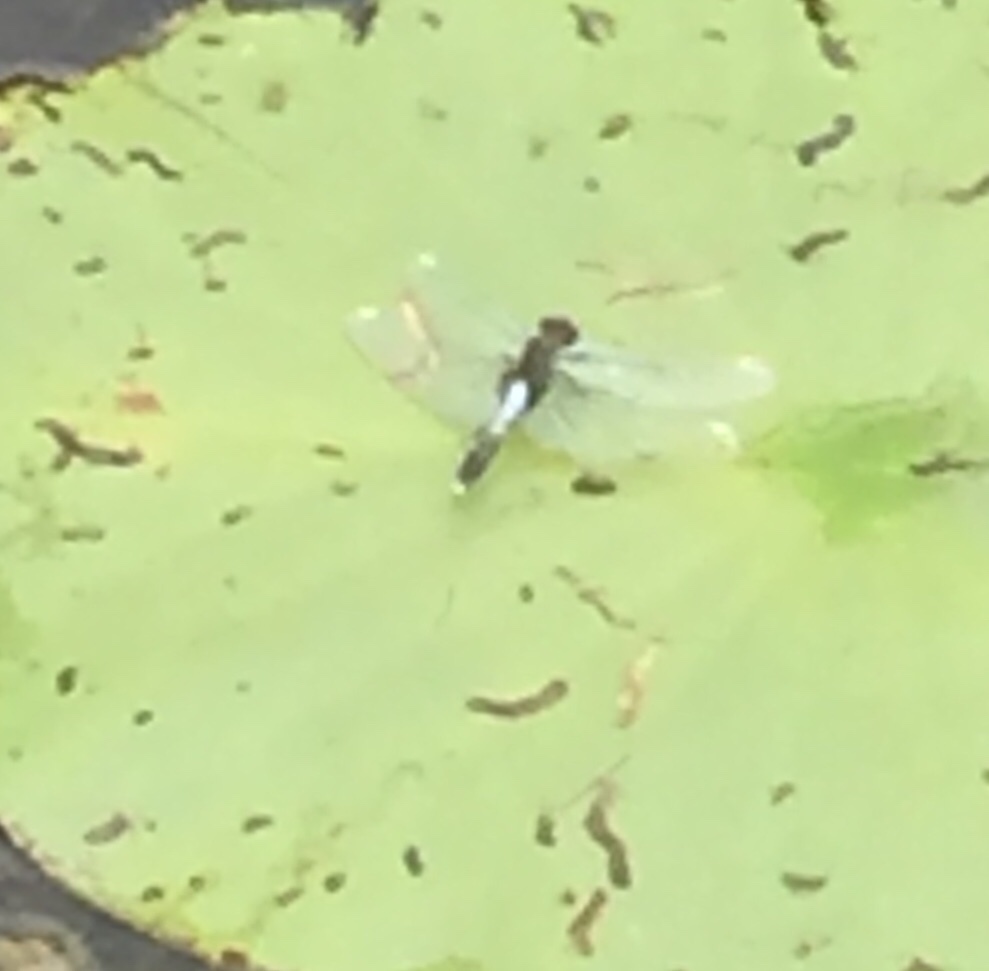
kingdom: Animalia
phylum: Arthropoda
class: Insecta
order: Odonata
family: Libellulidae
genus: Leucorrhinia
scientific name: Leucorrhinia caudalis
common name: Lilypad whiteface
